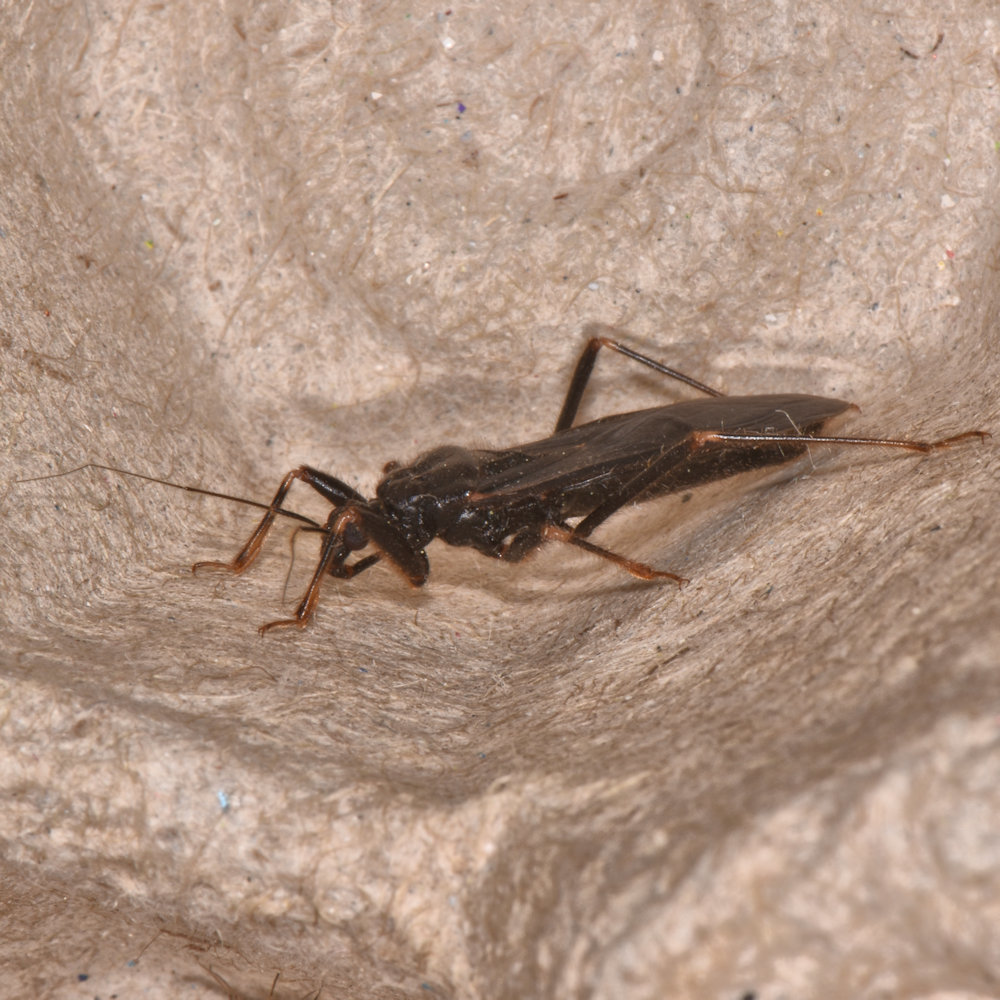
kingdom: Animalia
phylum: Arthropoda
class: Insecta
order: Hemiptera
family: Reduviidae
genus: Reduvius
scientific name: Reduvius personatus
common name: Masked hunter
